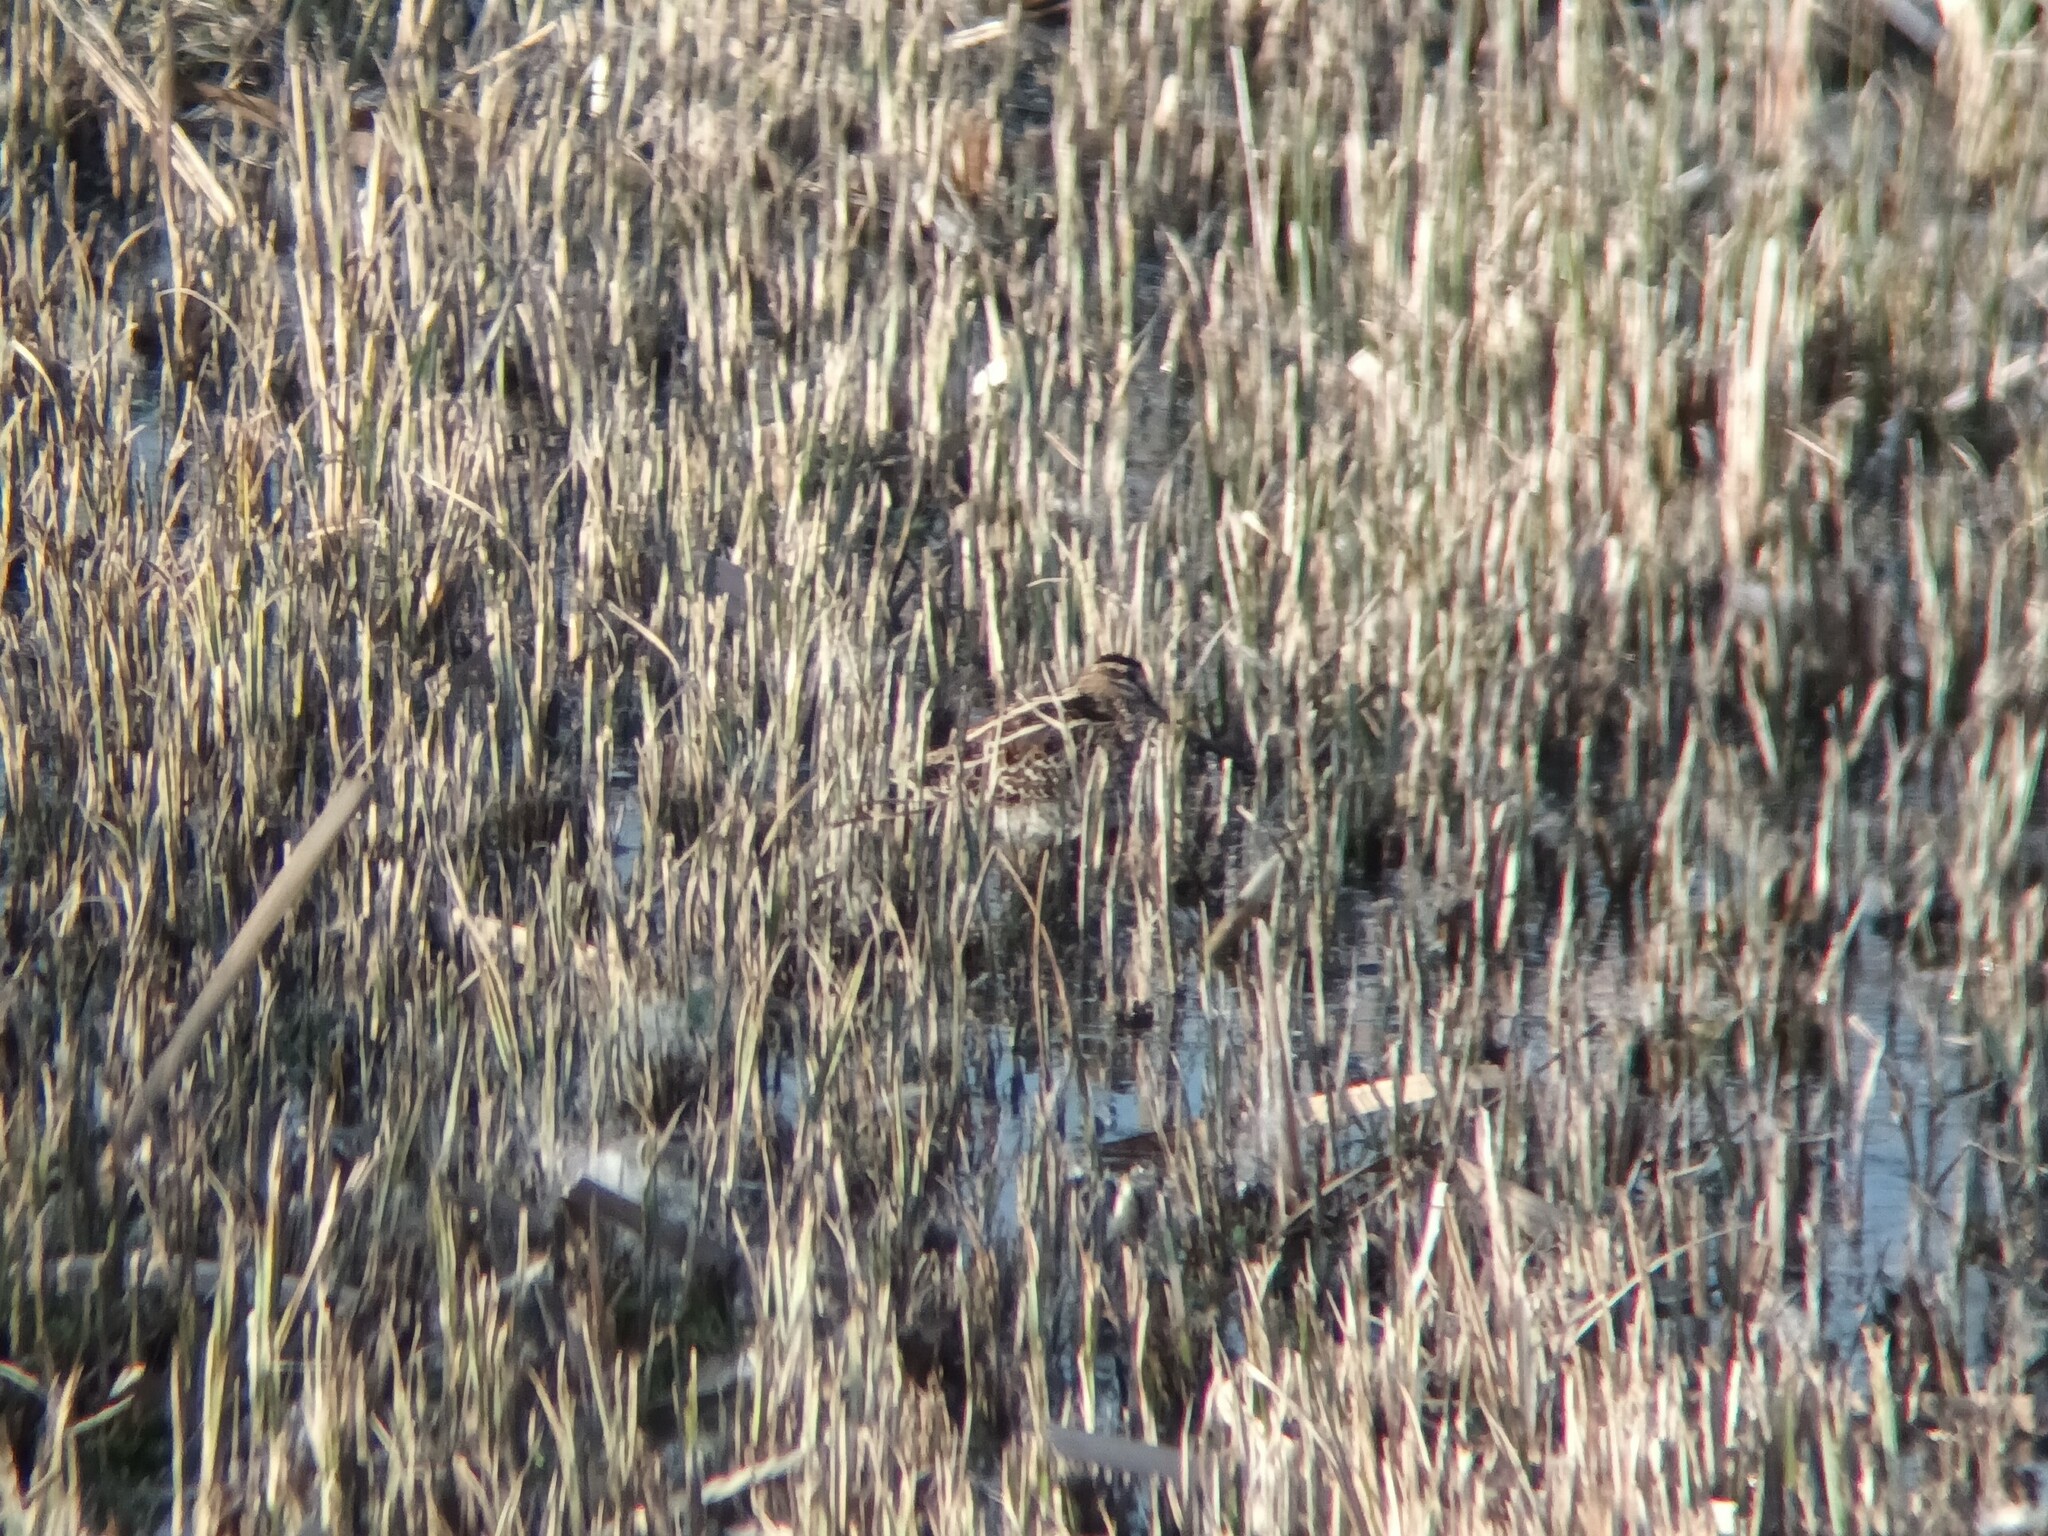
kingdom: Animalia
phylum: Chordata
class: Aves
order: Charadriiformes
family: Scolopacidae
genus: Gallinago
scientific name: Gallinago gallinago
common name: Common snipe
